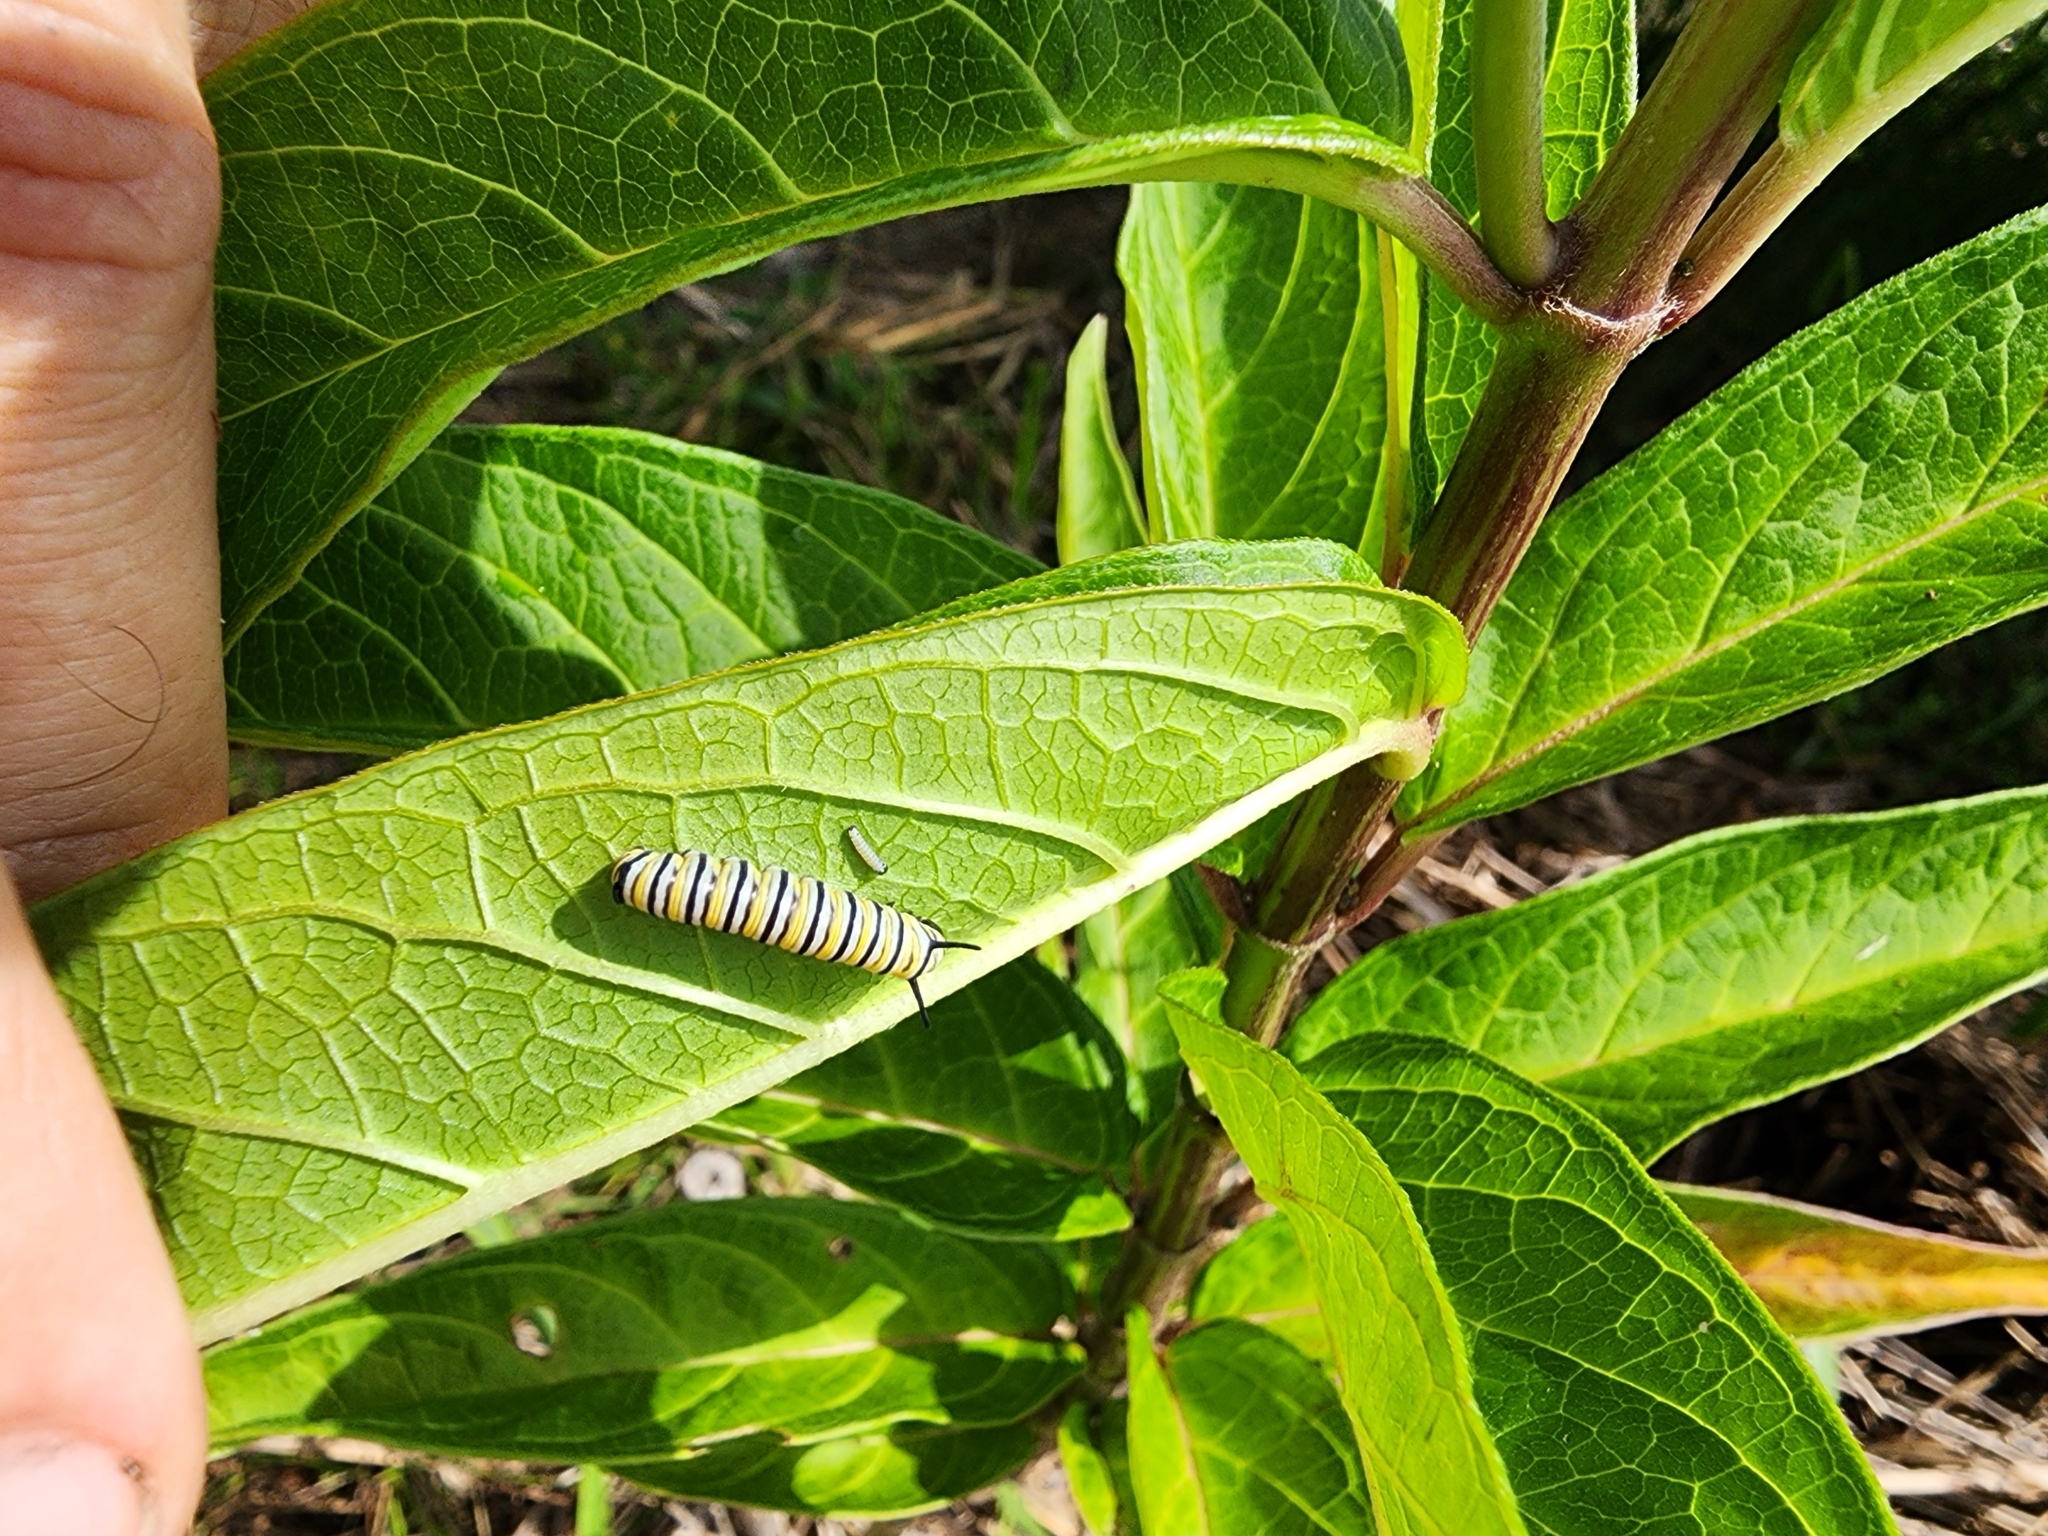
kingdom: Animalia
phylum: Arthropoda
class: Insecta
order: Lepidoptera
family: Nymphalidae
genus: Danaus
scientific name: Danaus plexippus
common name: Monarch
